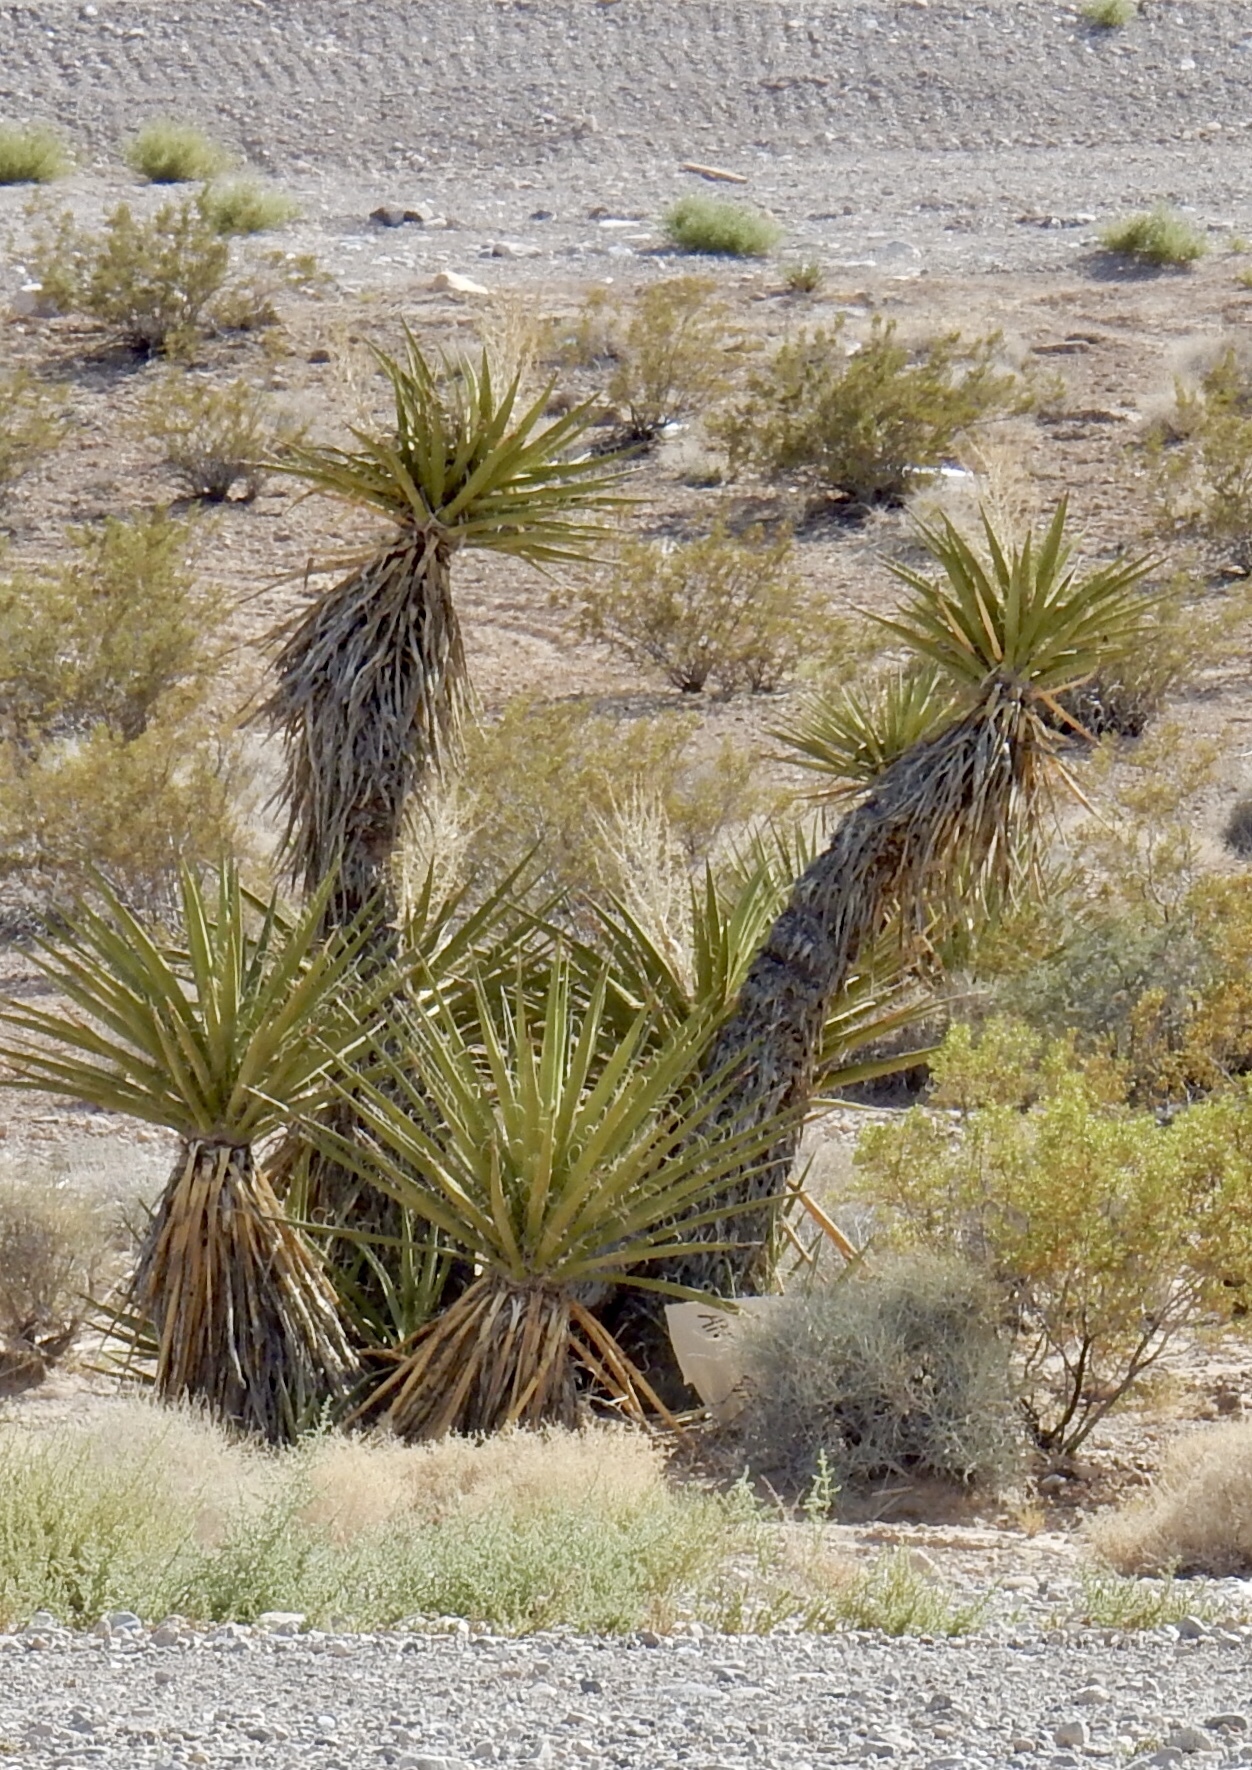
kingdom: Plantae
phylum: Tracheophyta
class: Liliopsida
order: Asparagales
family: Asparagaceae
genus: Yucca
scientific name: Yucca schidigera
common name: Mojave yucca
